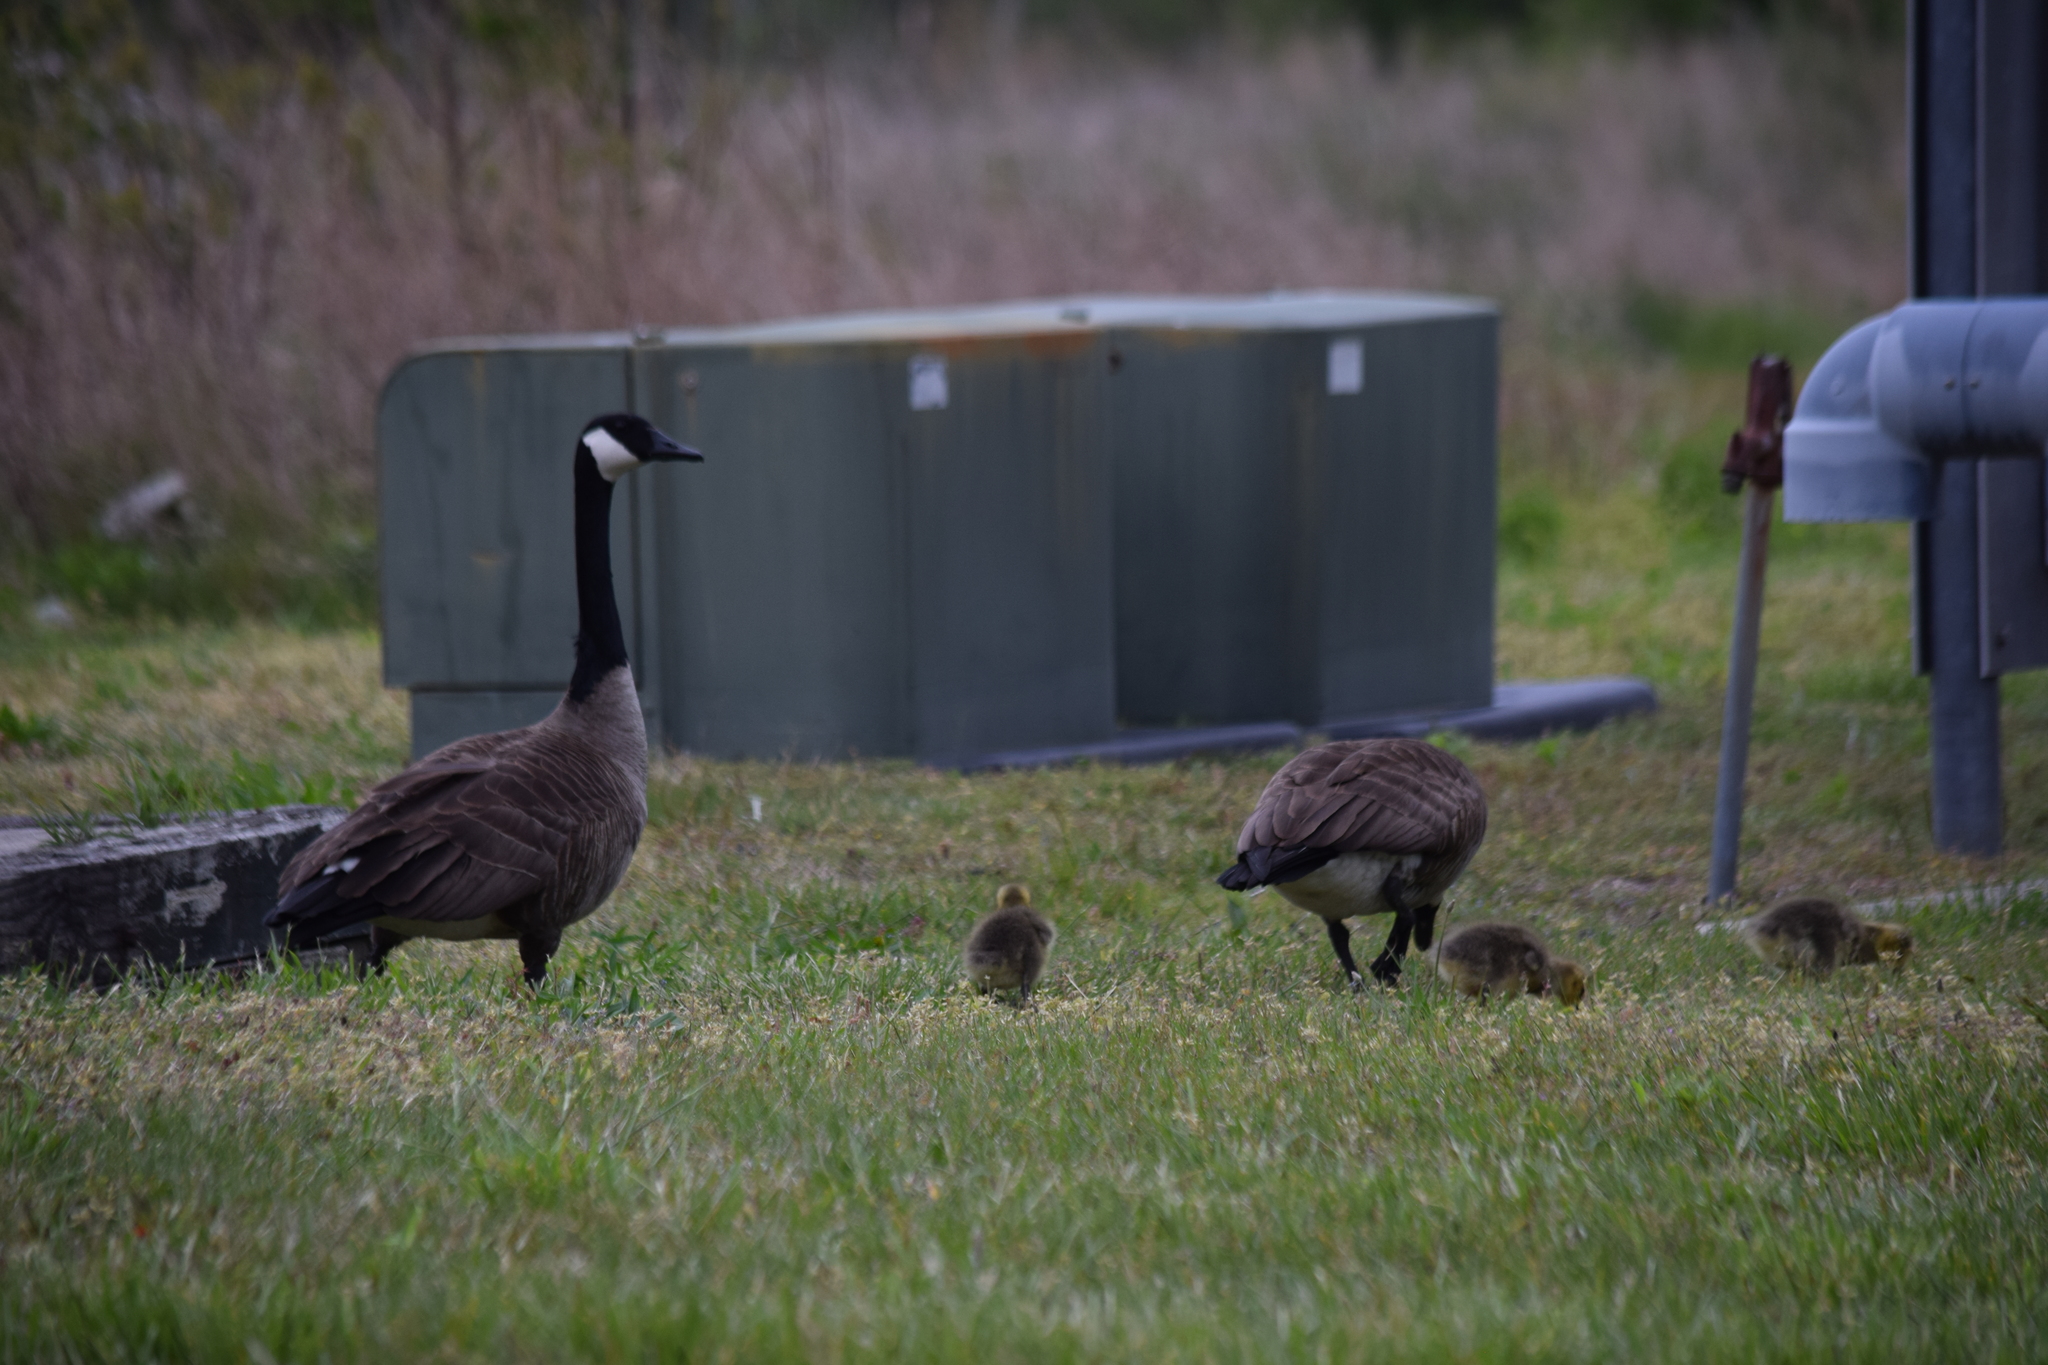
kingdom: Animalia
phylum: Chordata
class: Aves
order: Anseriformes
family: Anatidae
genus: Branta
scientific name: Branta canadensis
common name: Canada goose
